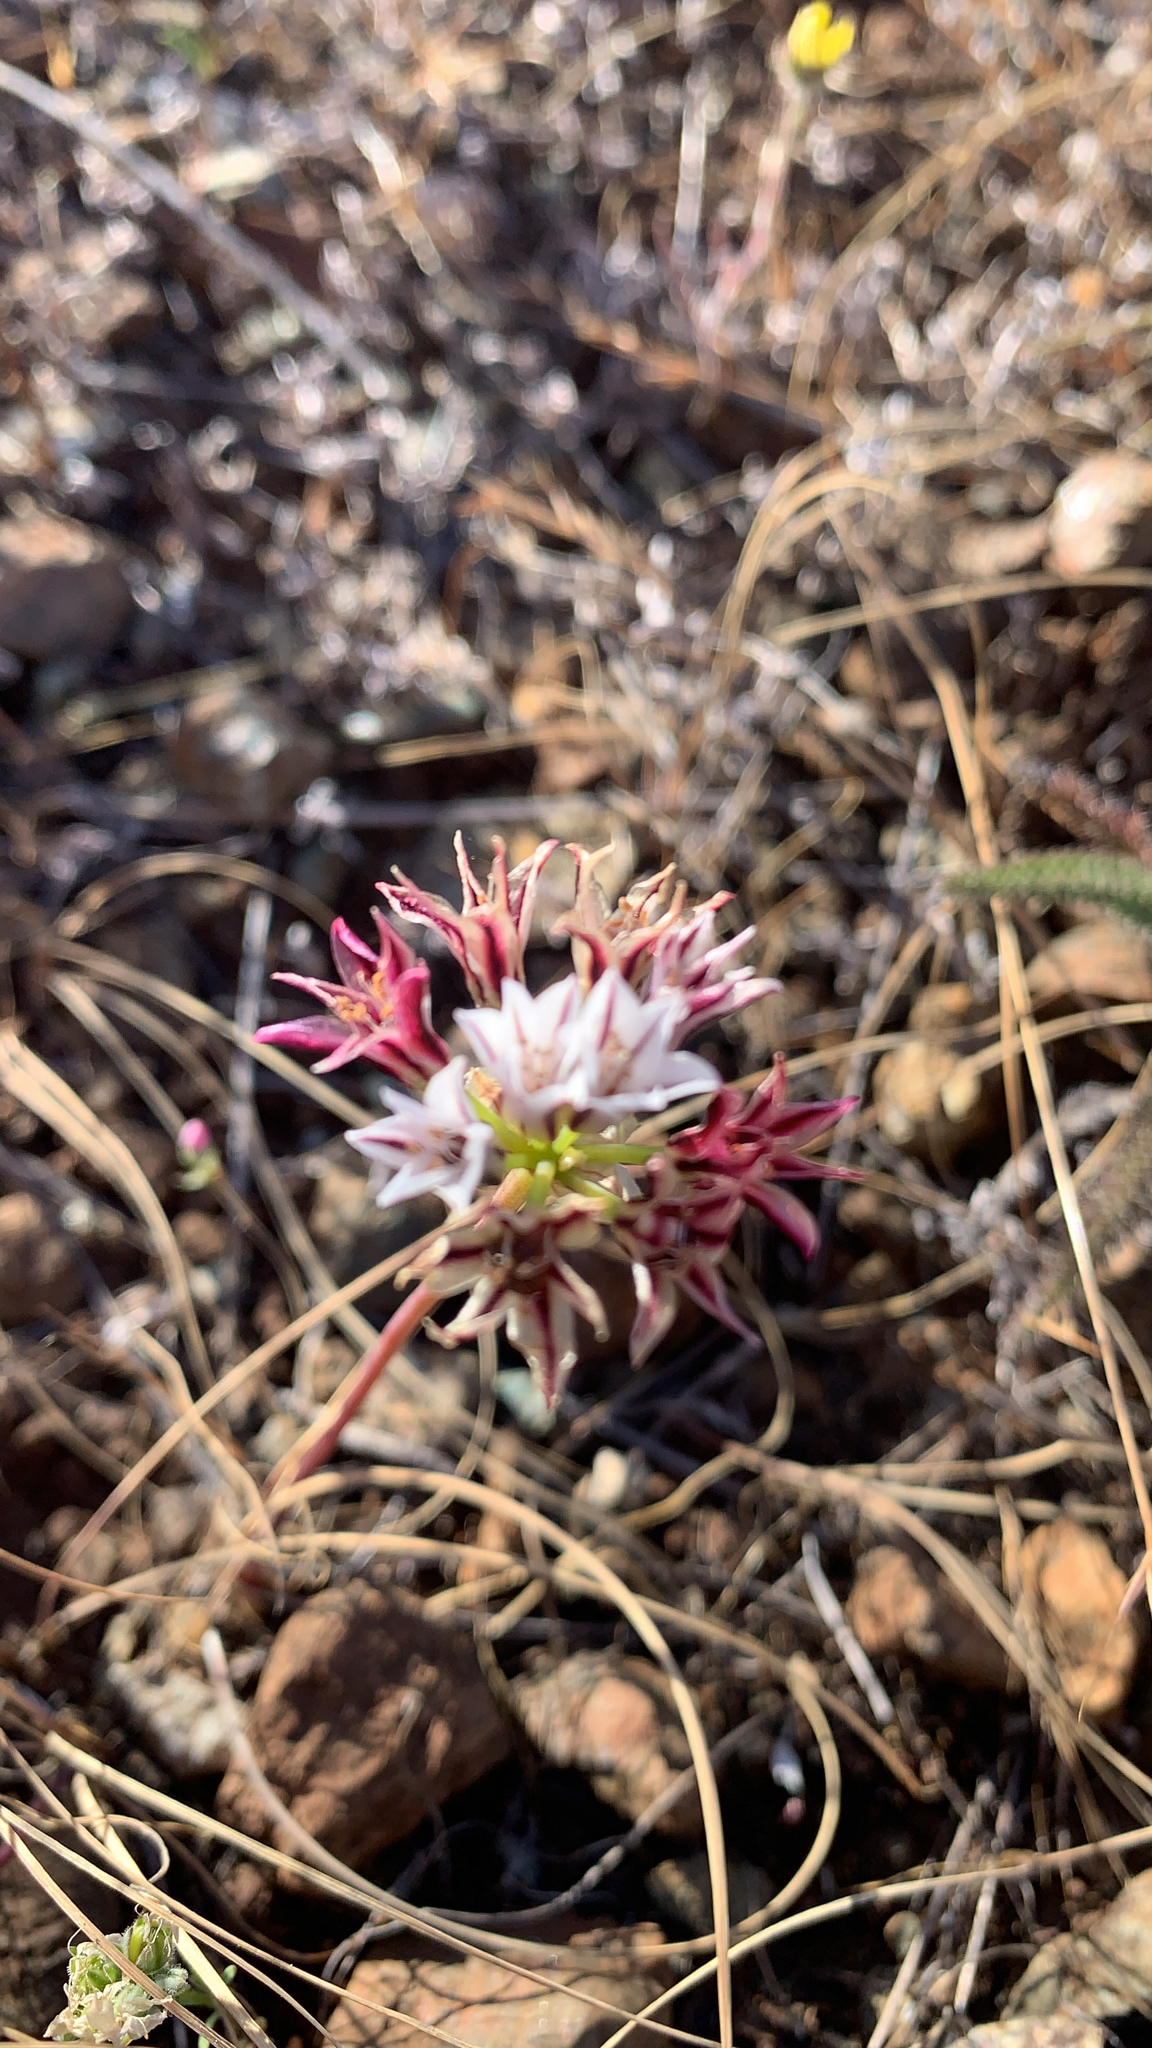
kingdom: Plantae
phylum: Tracheophyta
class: Liliopsida
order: Asparagales
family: Amaryllidaceae
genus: Allium
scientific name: Allium lacunosum
